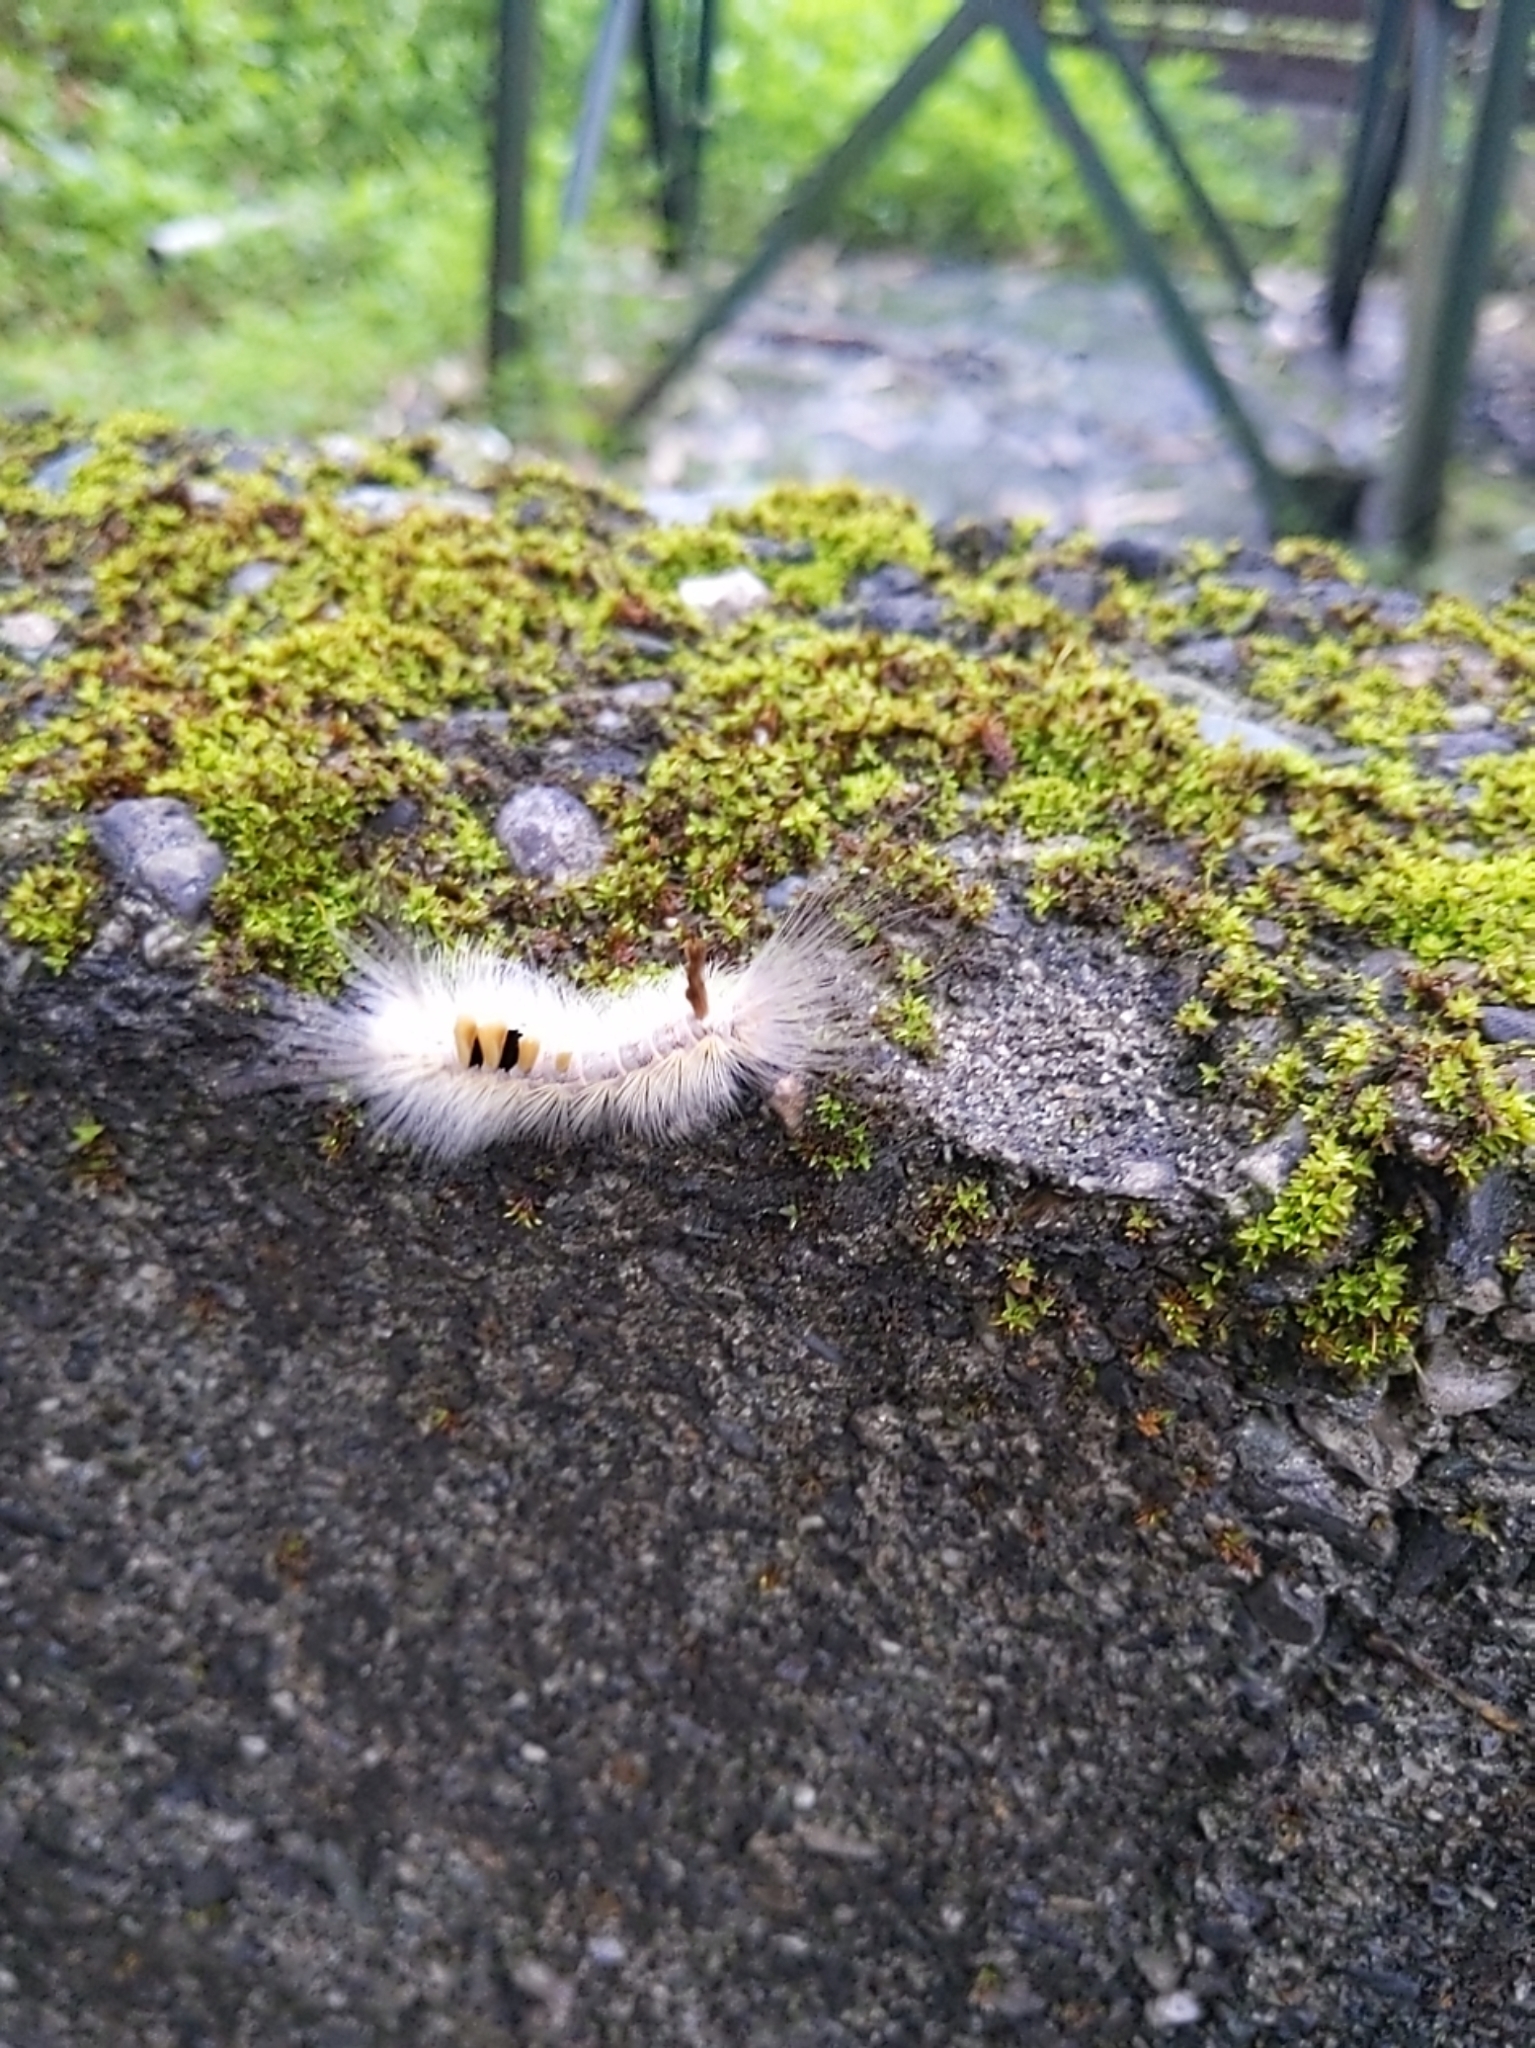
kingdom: Animalia
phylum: Arthropoda
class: Insecta
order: Lepidoptera
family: Erebidae
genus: Olene
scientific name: Olene dudgeoni
